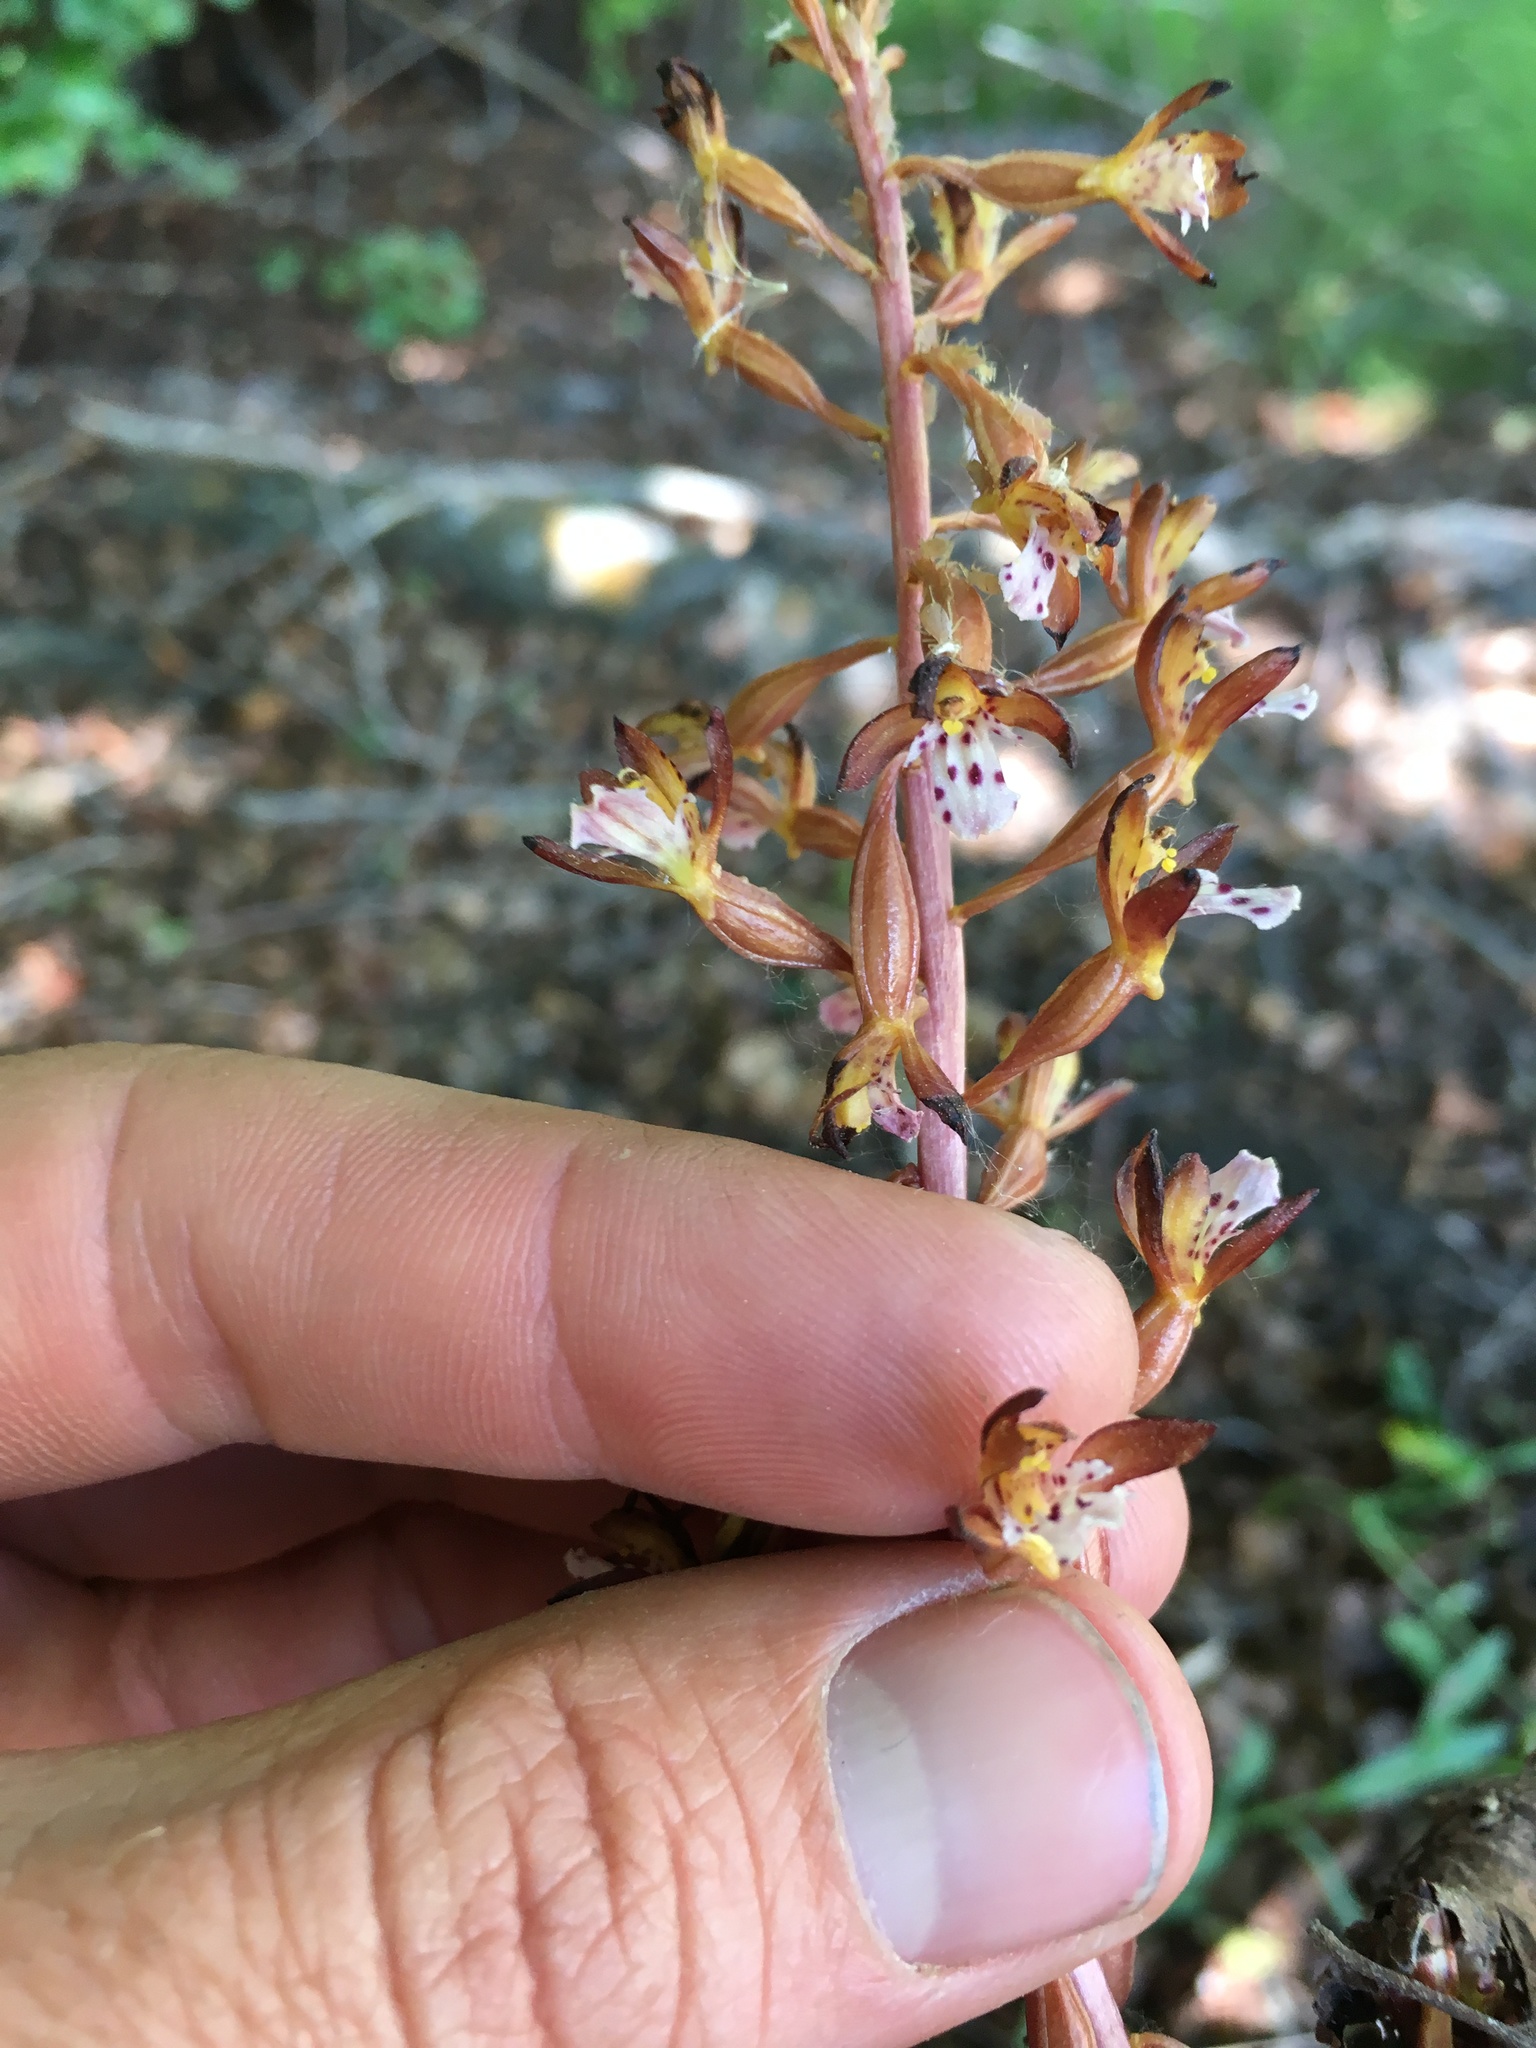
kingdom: Plantae
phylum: Tracheophyta
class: Liliopsida
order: Asparagales
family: Orchidaceae
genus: Corallorhiza
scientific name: Corallorhiza maculata
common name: Spotted coralroot
